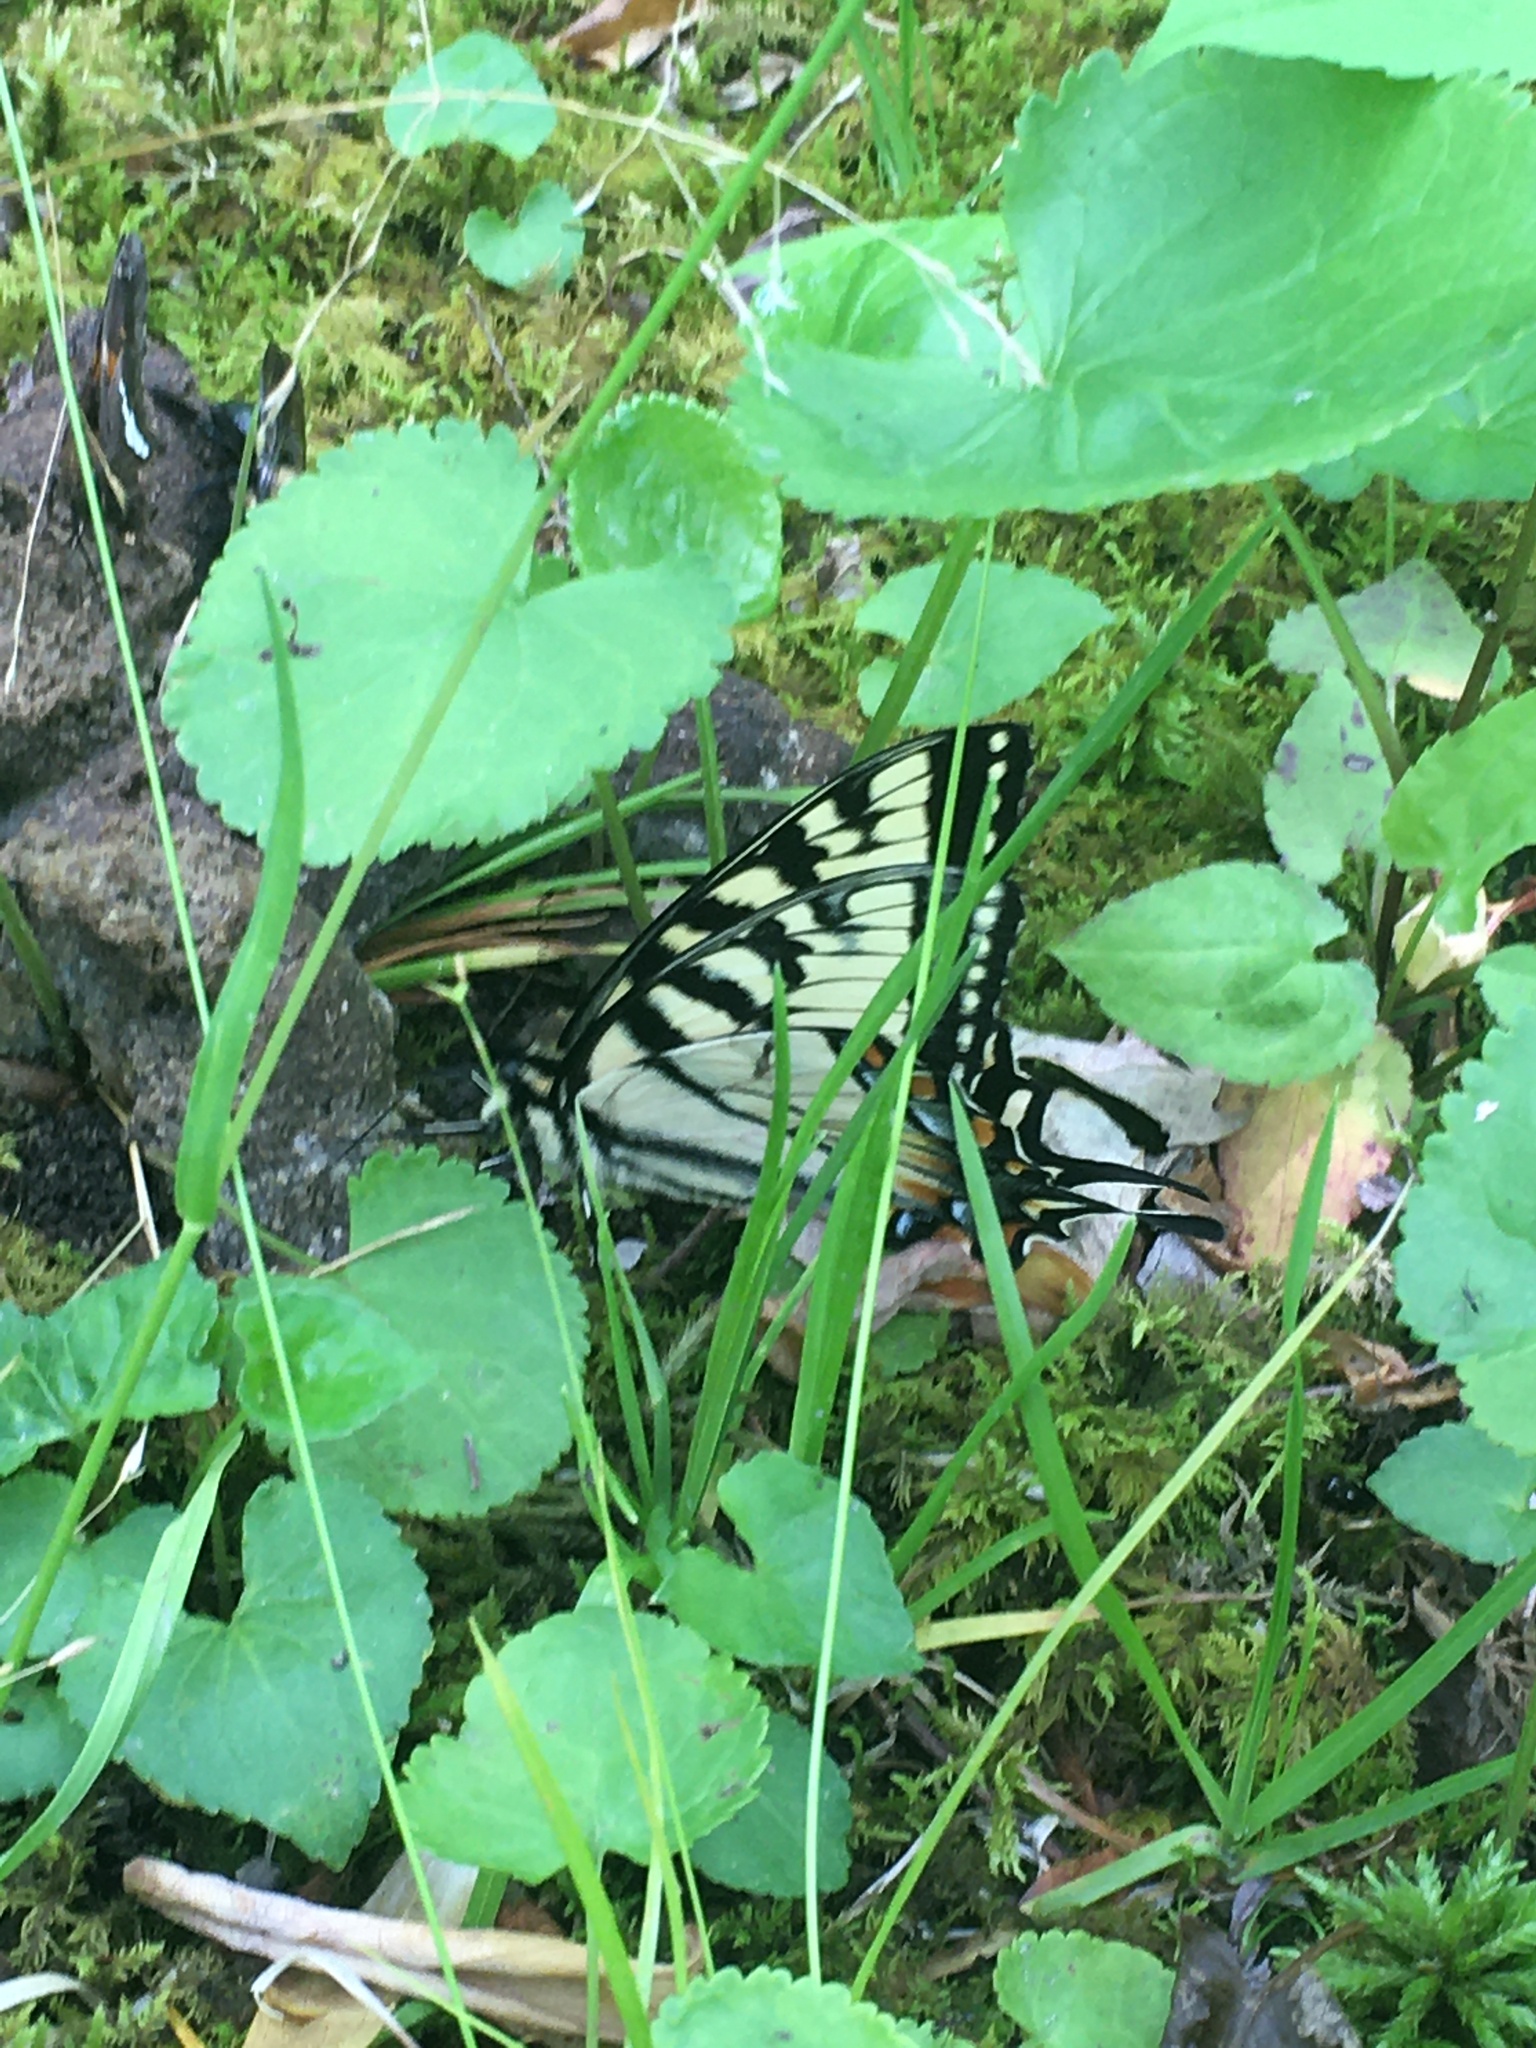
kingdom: Animalia
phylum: Arthropoda
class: Insecta
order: Lepidoptera
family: Papilionidae
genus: Papilio
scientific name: Papilio glaucus
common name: Tiger swallowtail
